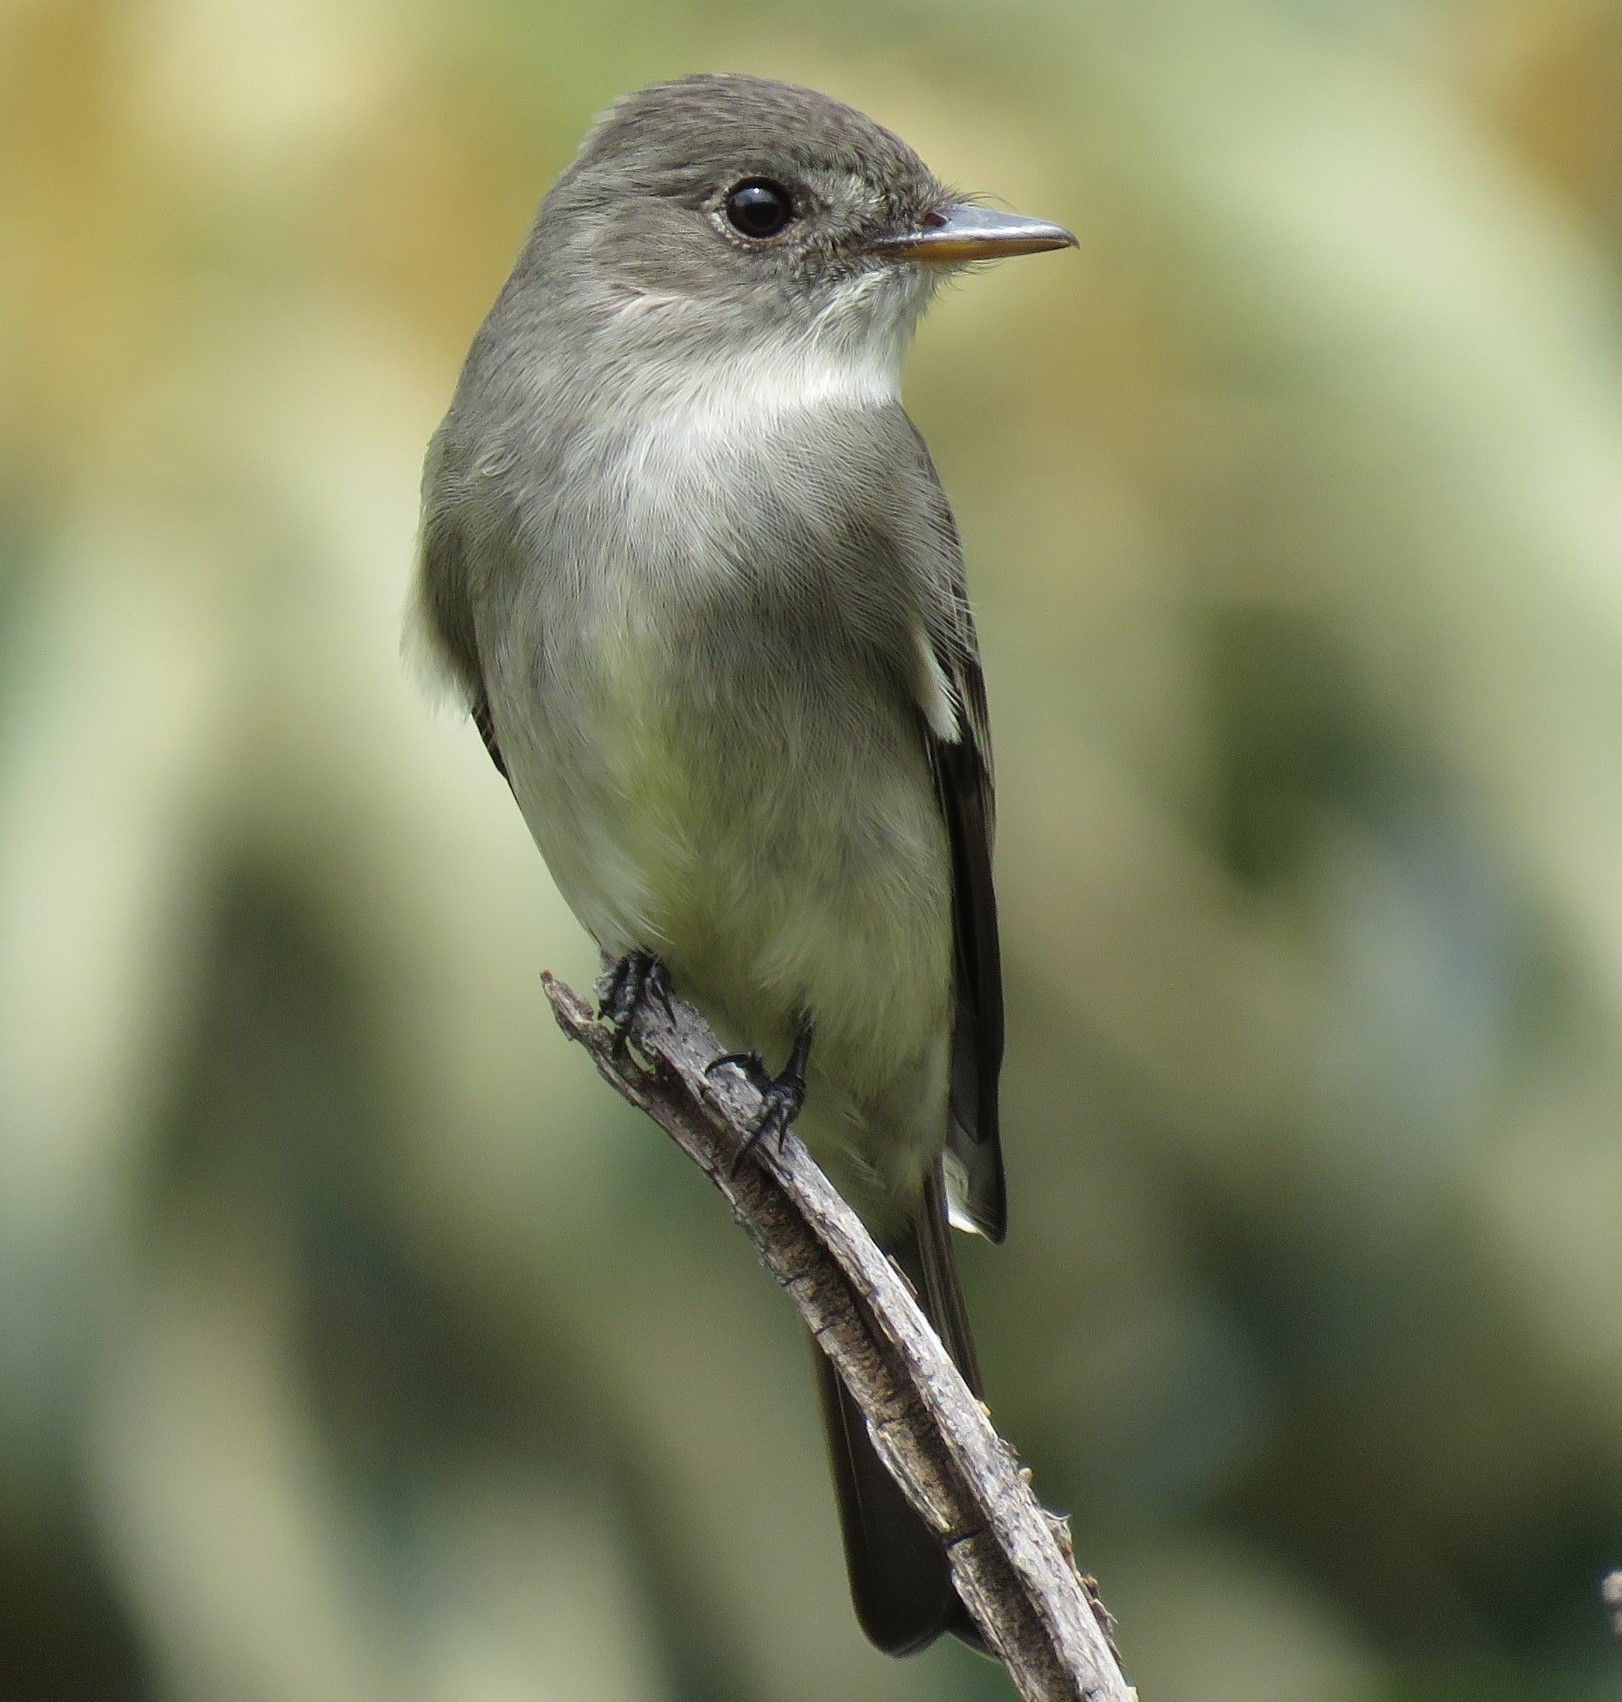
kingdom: Animalia
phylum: Chordata
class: Aves
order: Passeriformes
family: Tyrannidae
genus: Contopus
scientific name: Contopus virens
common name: Eastern wood-pewee
